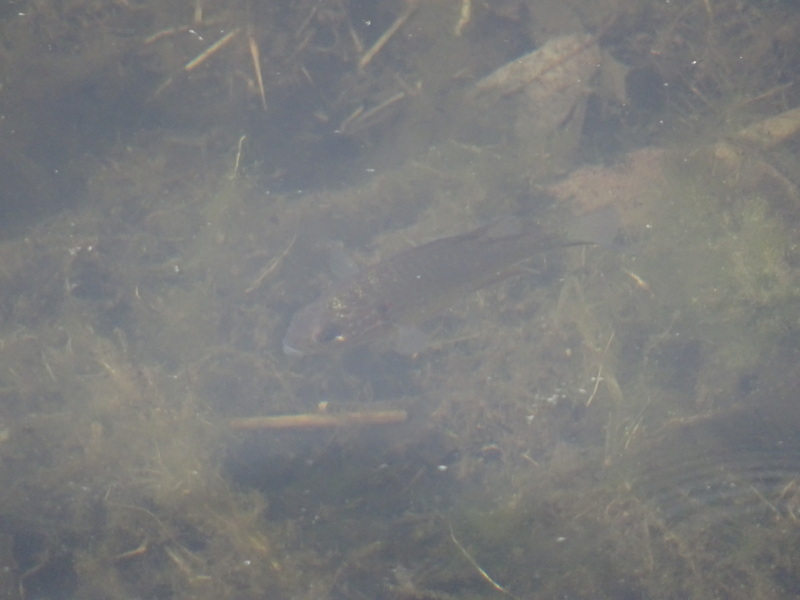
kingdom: Animalia
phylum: Chordata
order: Perciformes
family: Centrarchidae
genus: Lepomis
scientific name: Lepomis gibbosus
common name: Pumpkinseed
